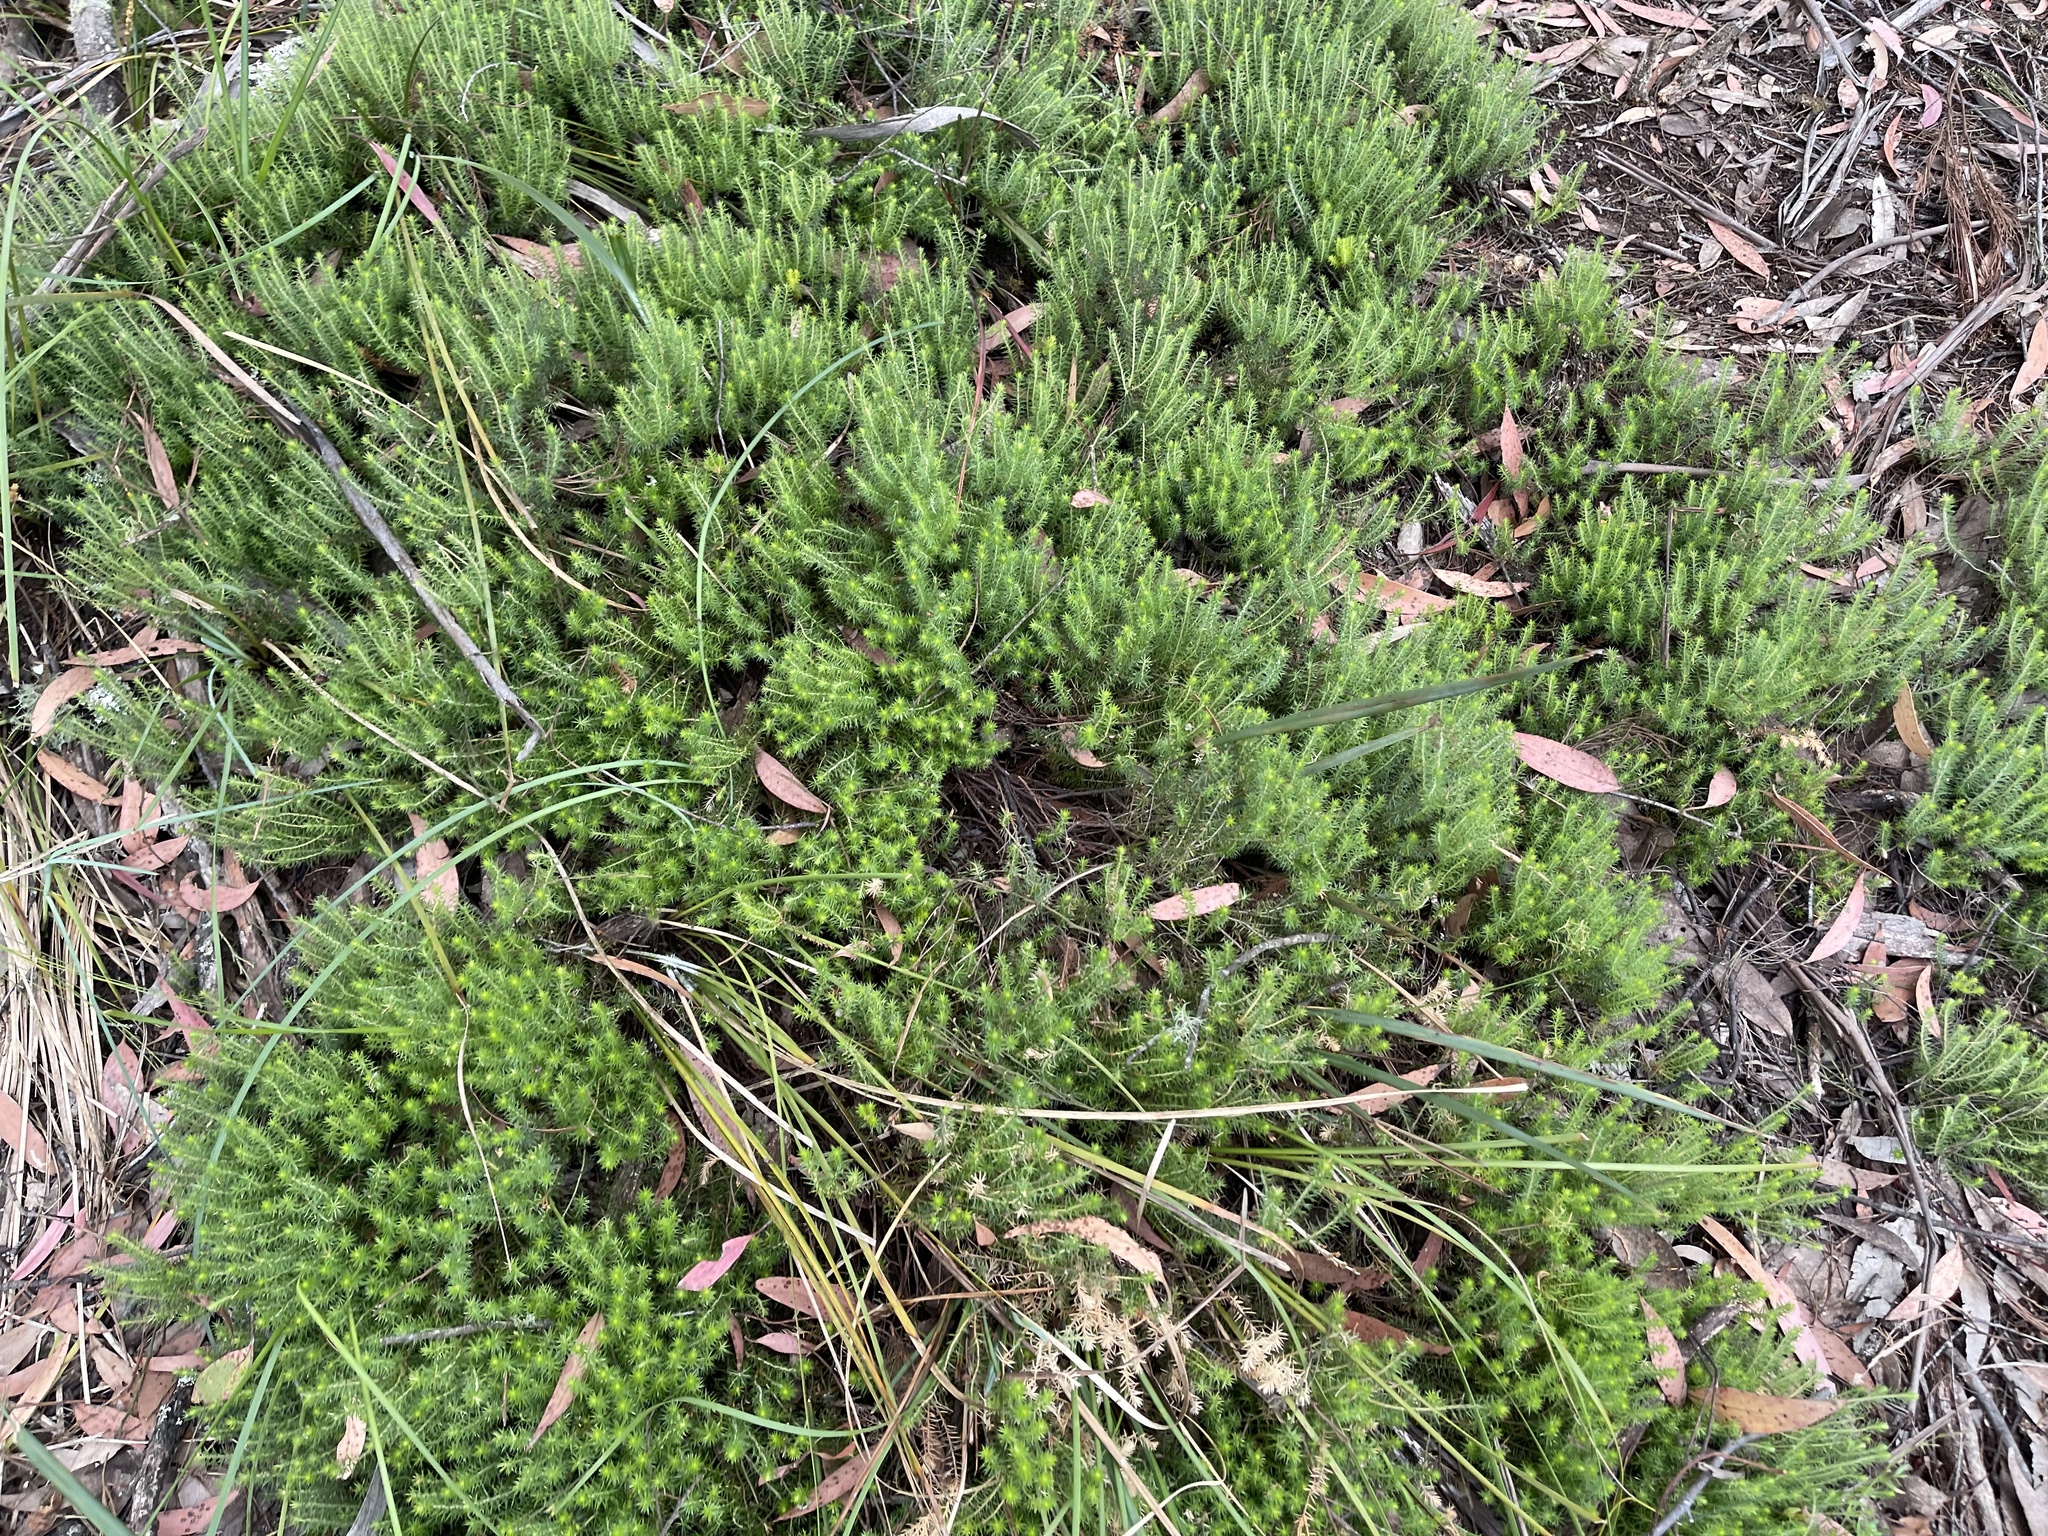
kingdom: Plantae
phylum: Tracheophyta
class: Magnoliopsida
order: Ericales
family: Ericaceae
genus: Acrotriche
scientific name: Acrotriche serrulata
